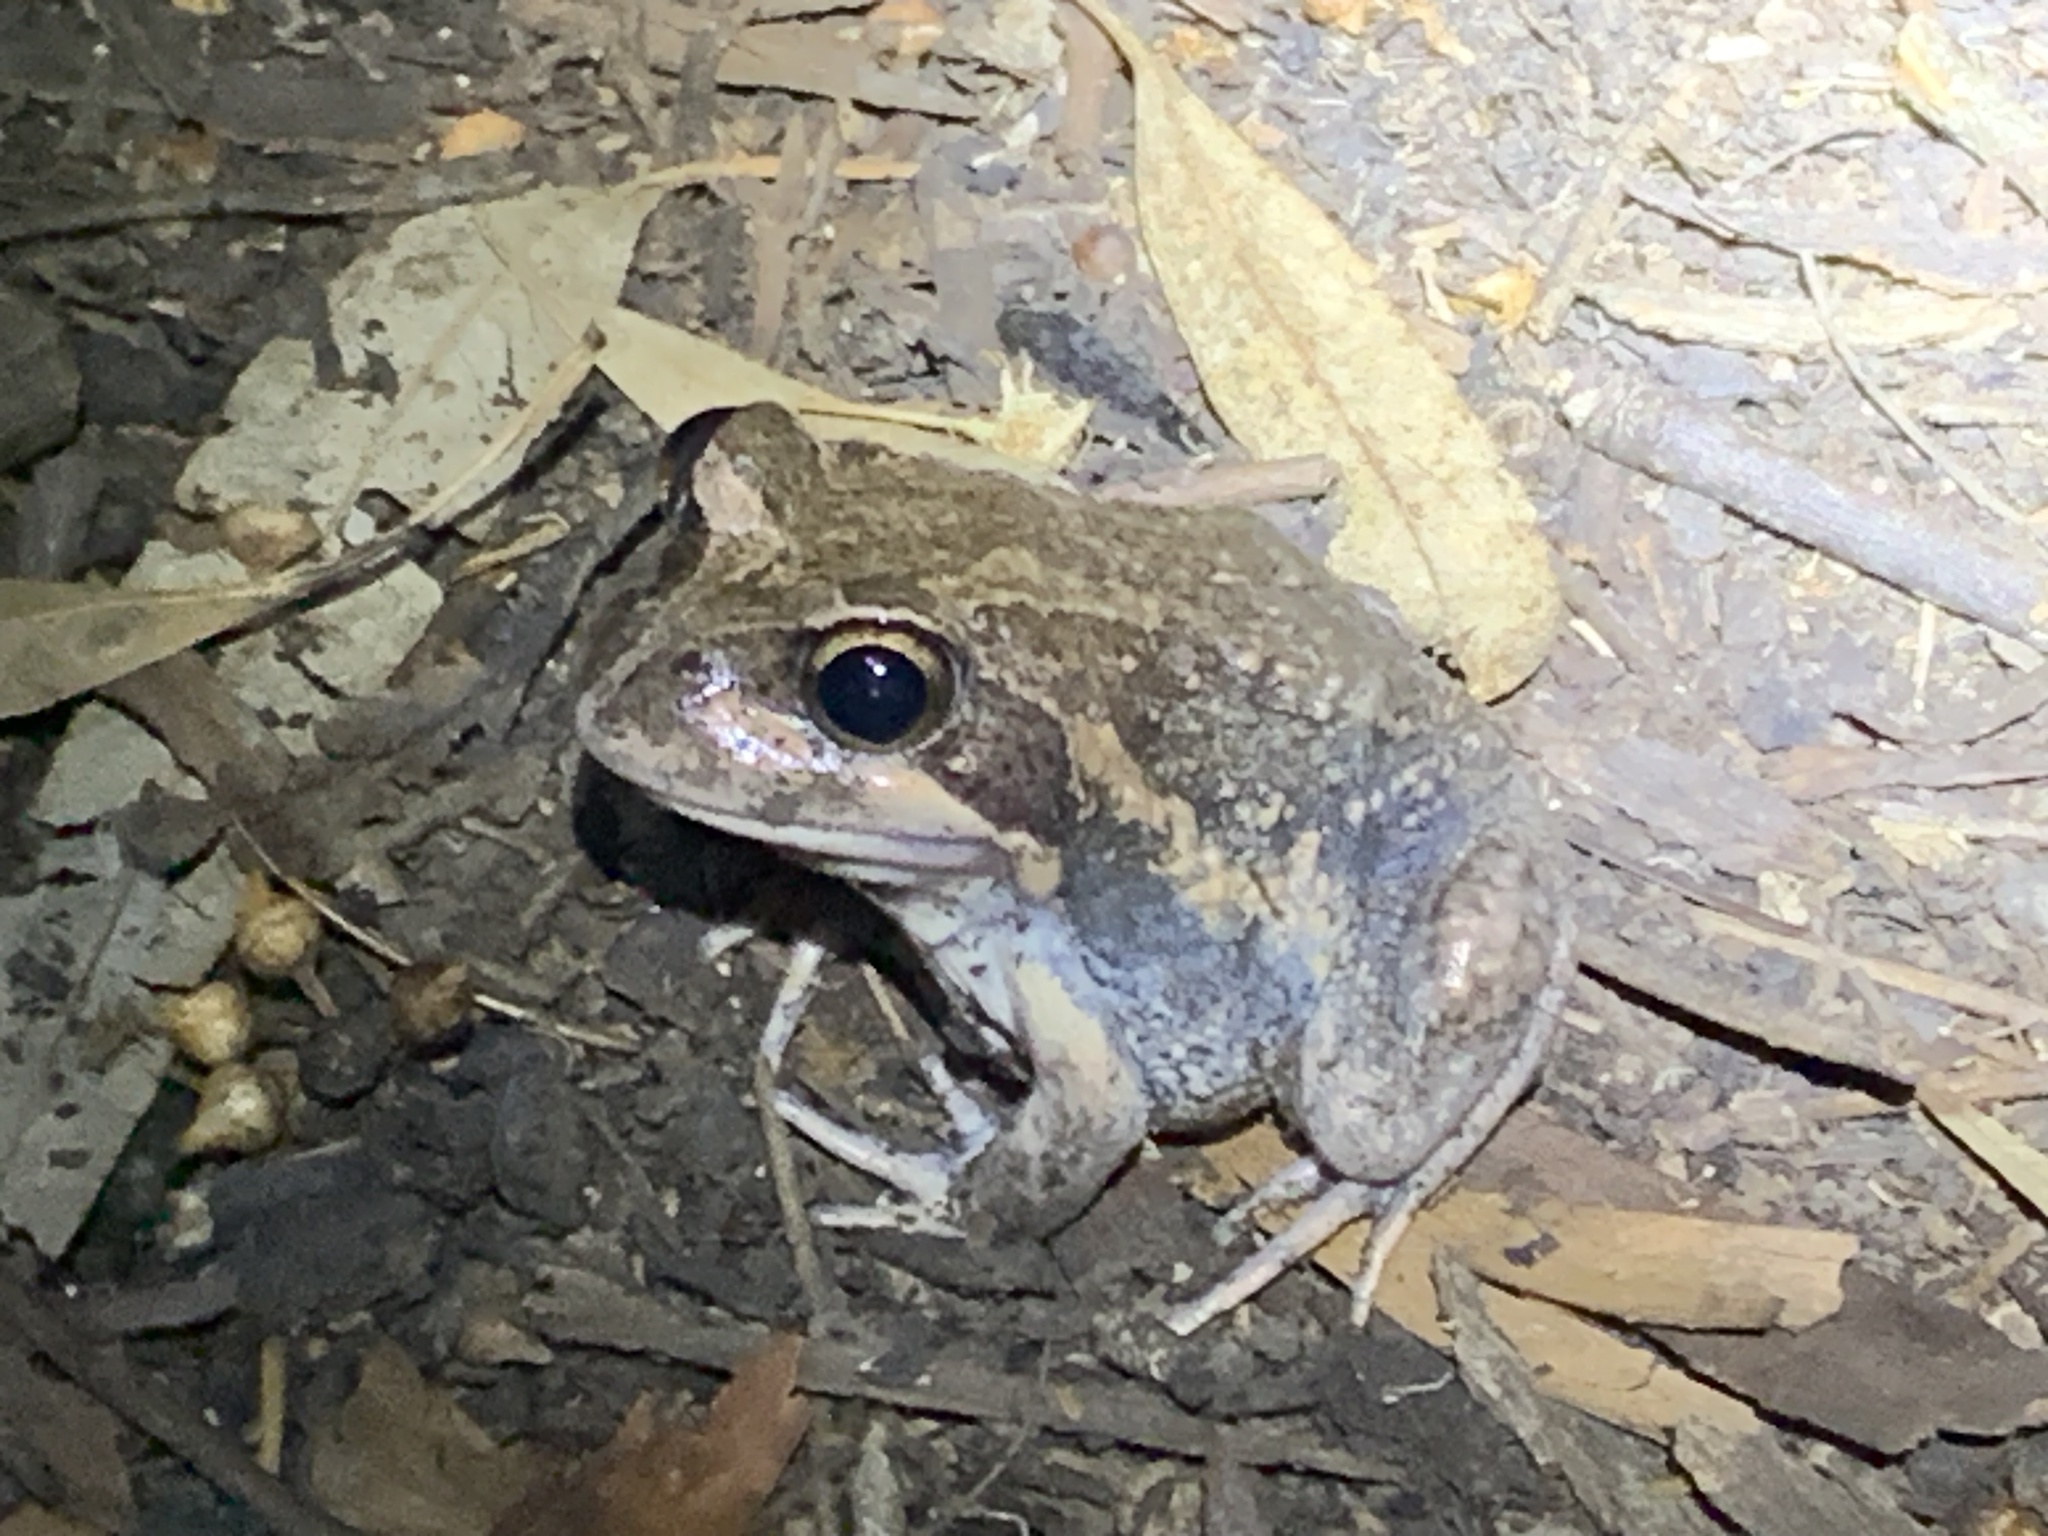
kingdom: Animalia
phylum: Chordata
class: Amphibia
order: Anura
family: Limnodynastidae
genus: Limnodynastes
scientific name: Limnodynastes dumerilii
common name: Banjo frog
